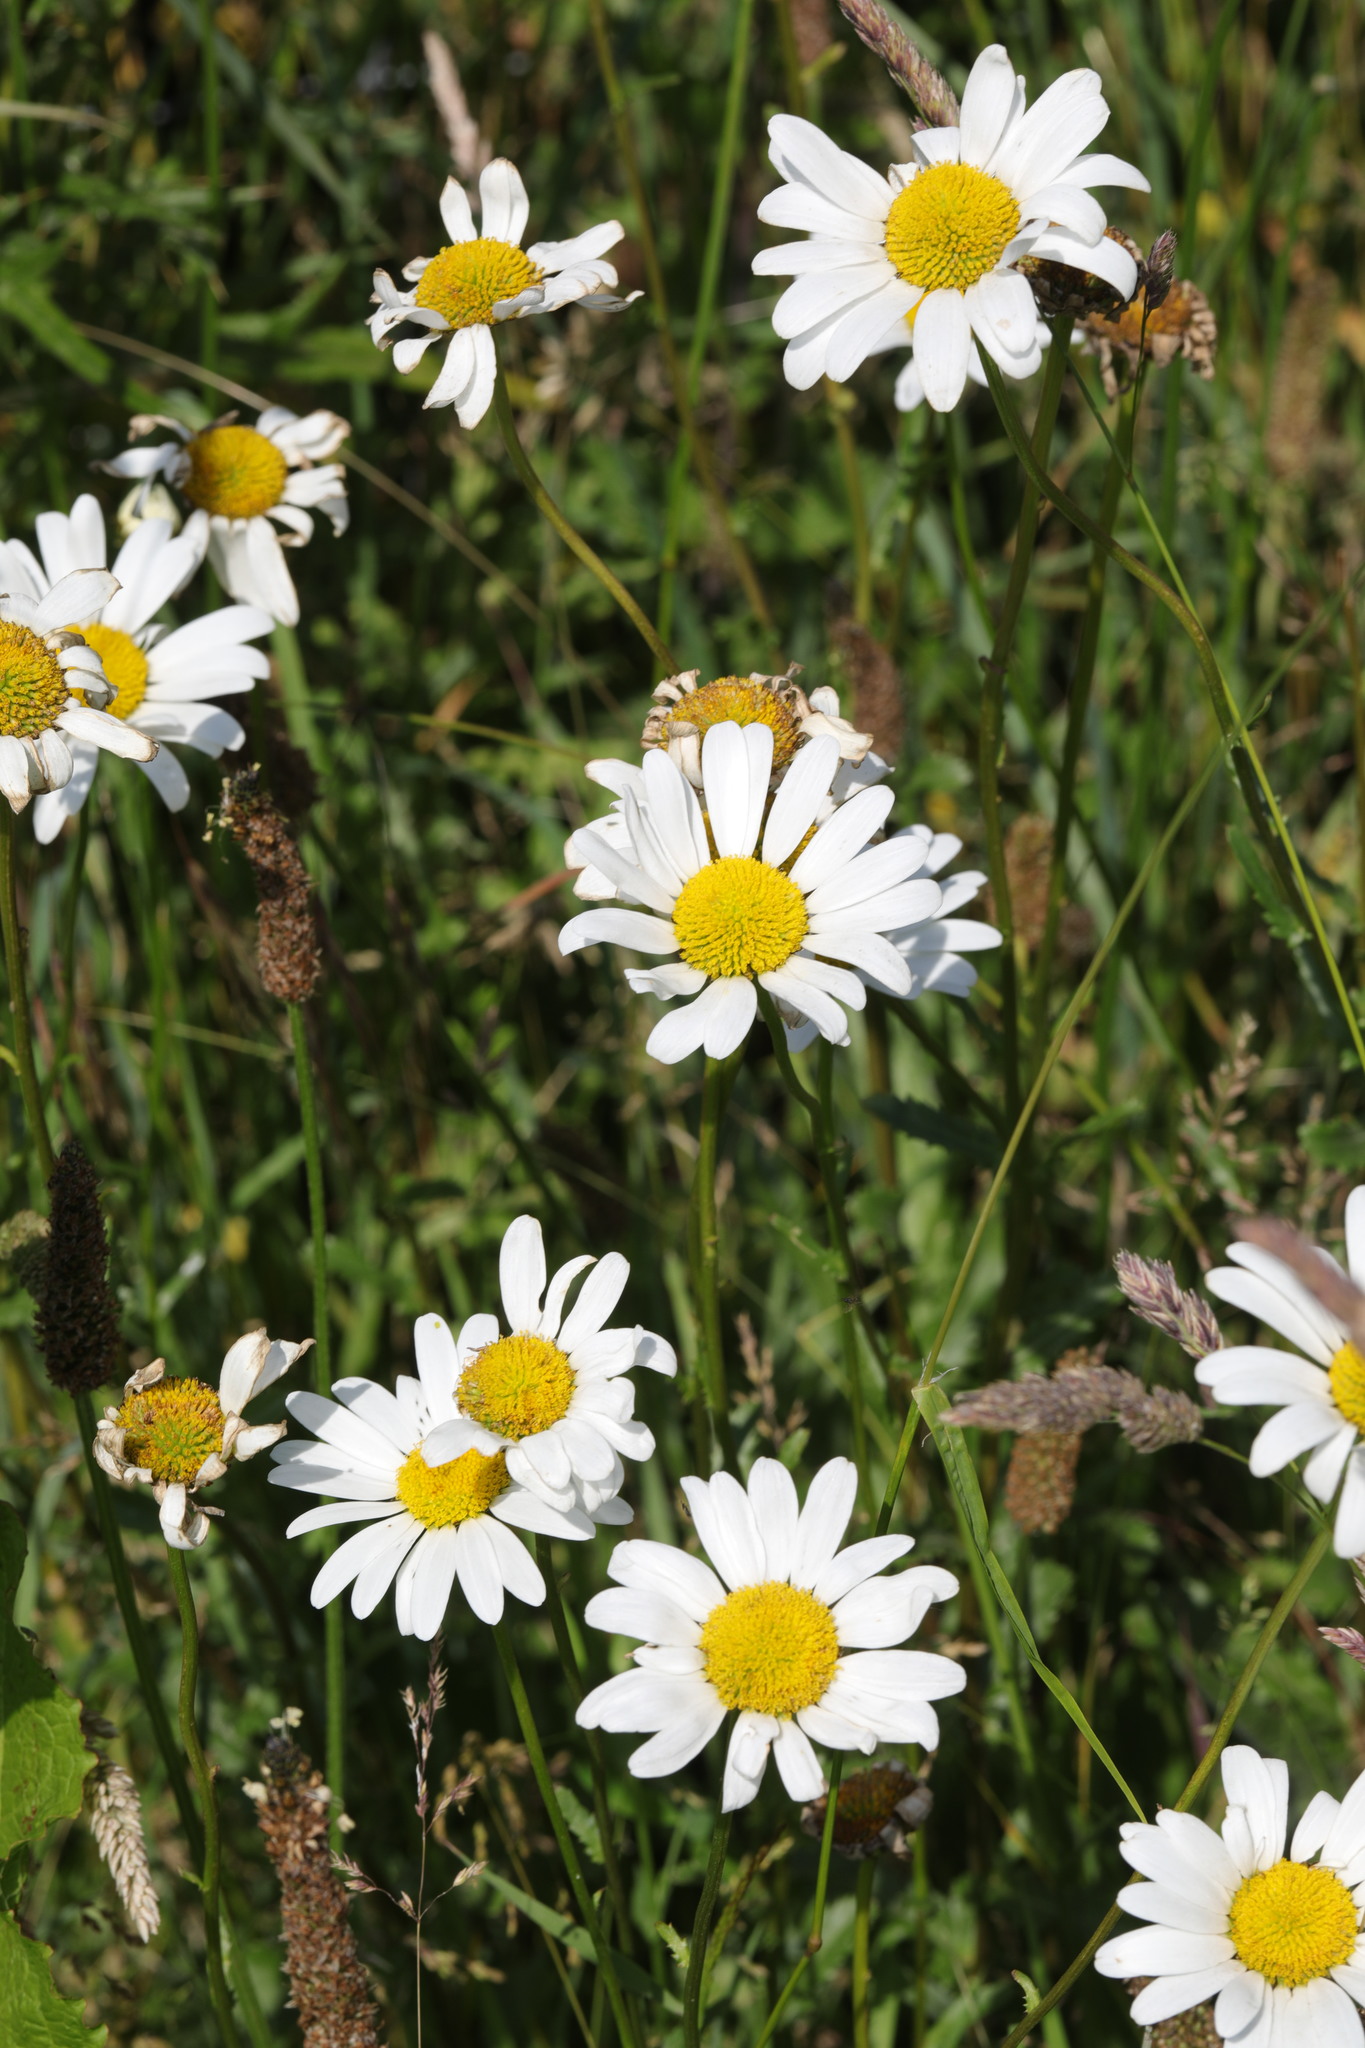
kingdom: Plantae
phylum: Tracheophyta
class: Magnoliopsida
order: Asterales
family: Asteraceae
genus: Leucanthemum
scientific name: Leucanthemum vulgare
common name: Oxeye daisy
